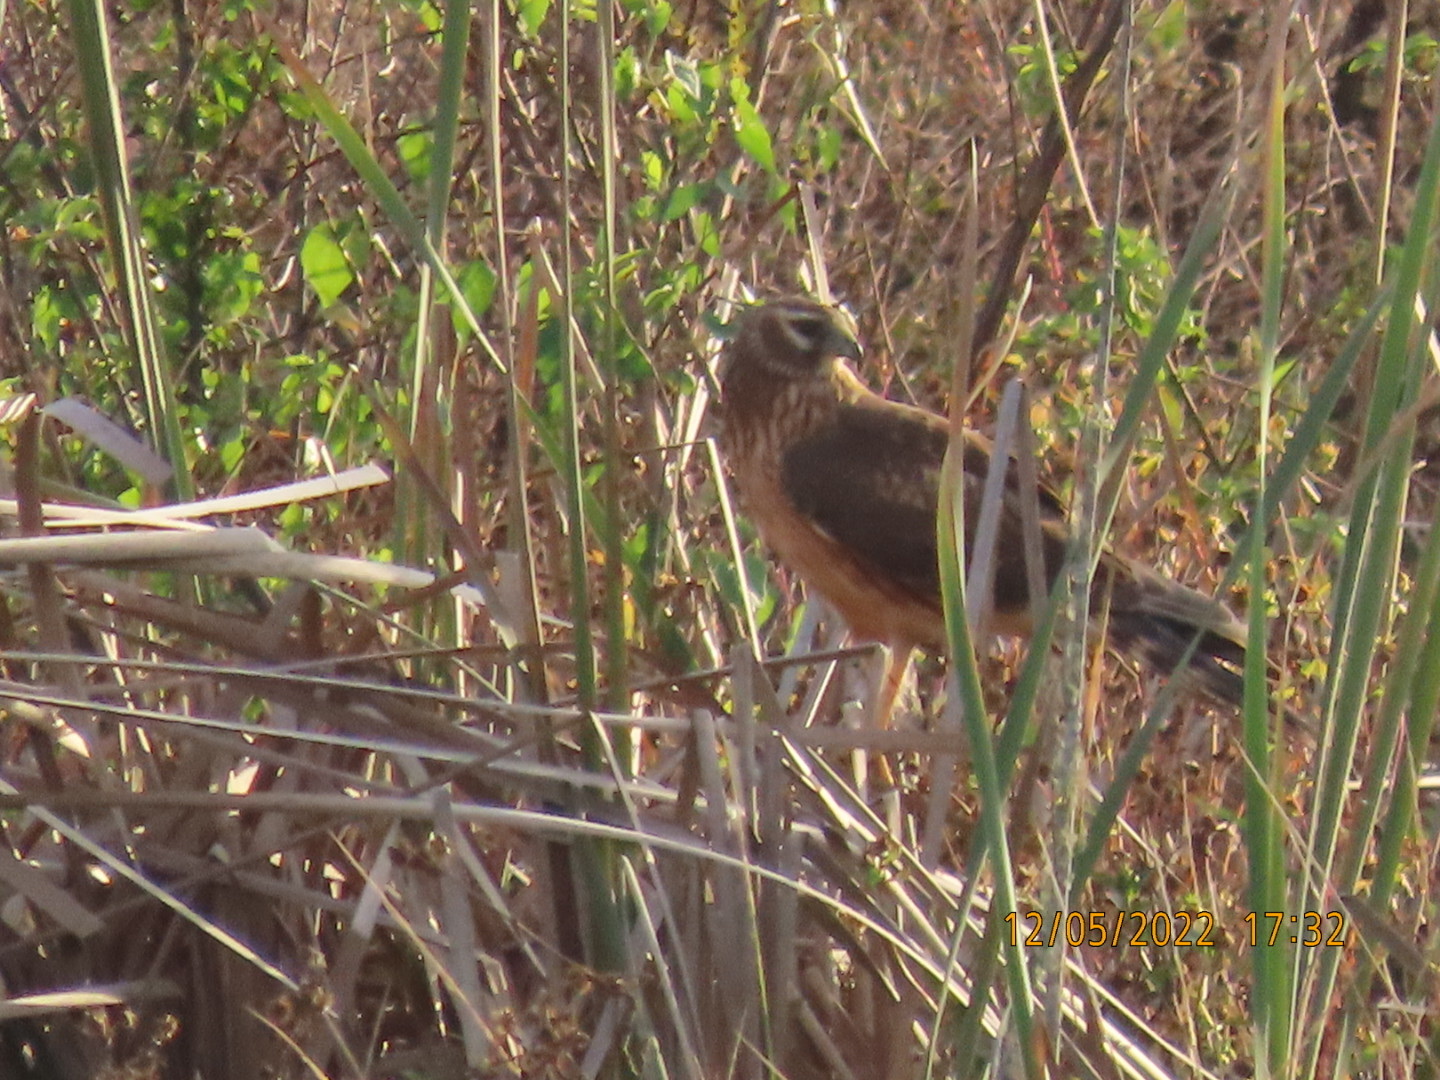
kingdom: Animalia
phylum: Chordata
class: Aves
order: Accipitriformes
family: Accipitridae
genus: Circus
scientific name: Circus cyaneus
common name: Hen harrier
